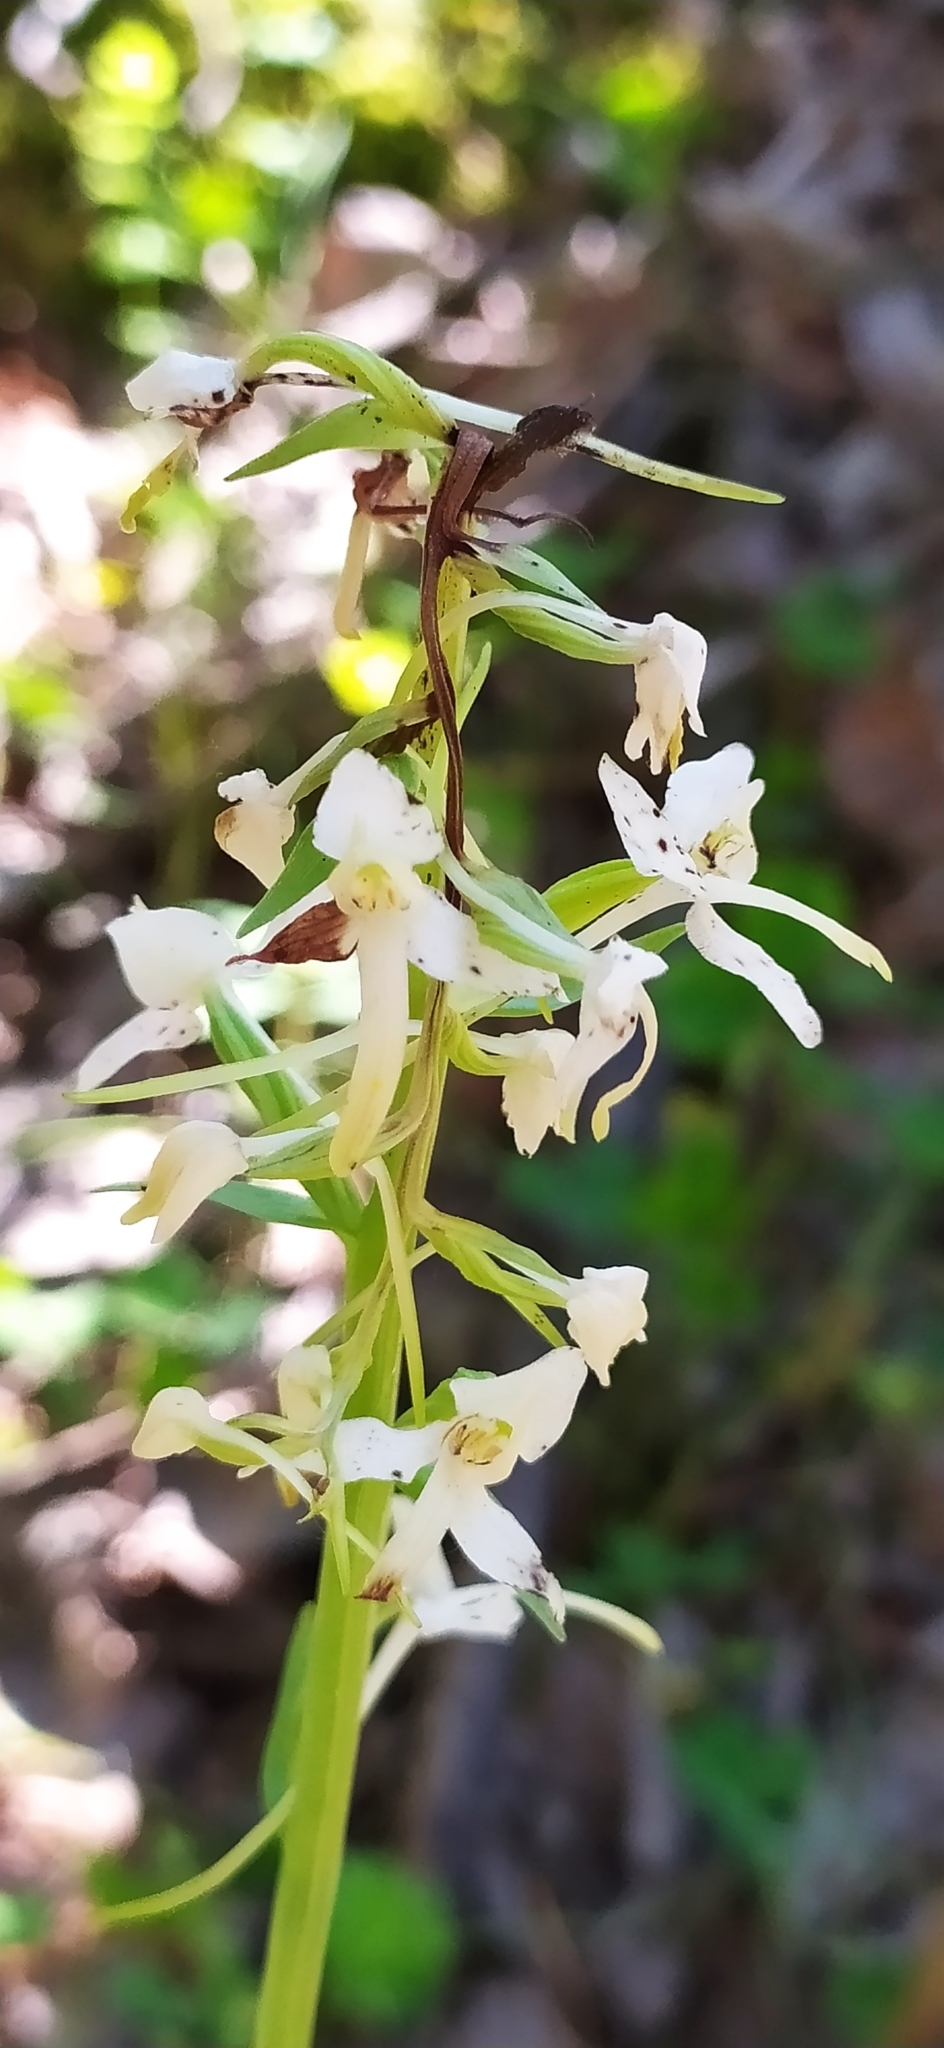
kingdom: Plantae
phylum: Tracheophyta
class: Liliopsida
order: Asparagales
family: Orchidaceae
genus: Platanthera
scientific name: Platanthera bifolia
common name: Lesser butterfly-orchid
